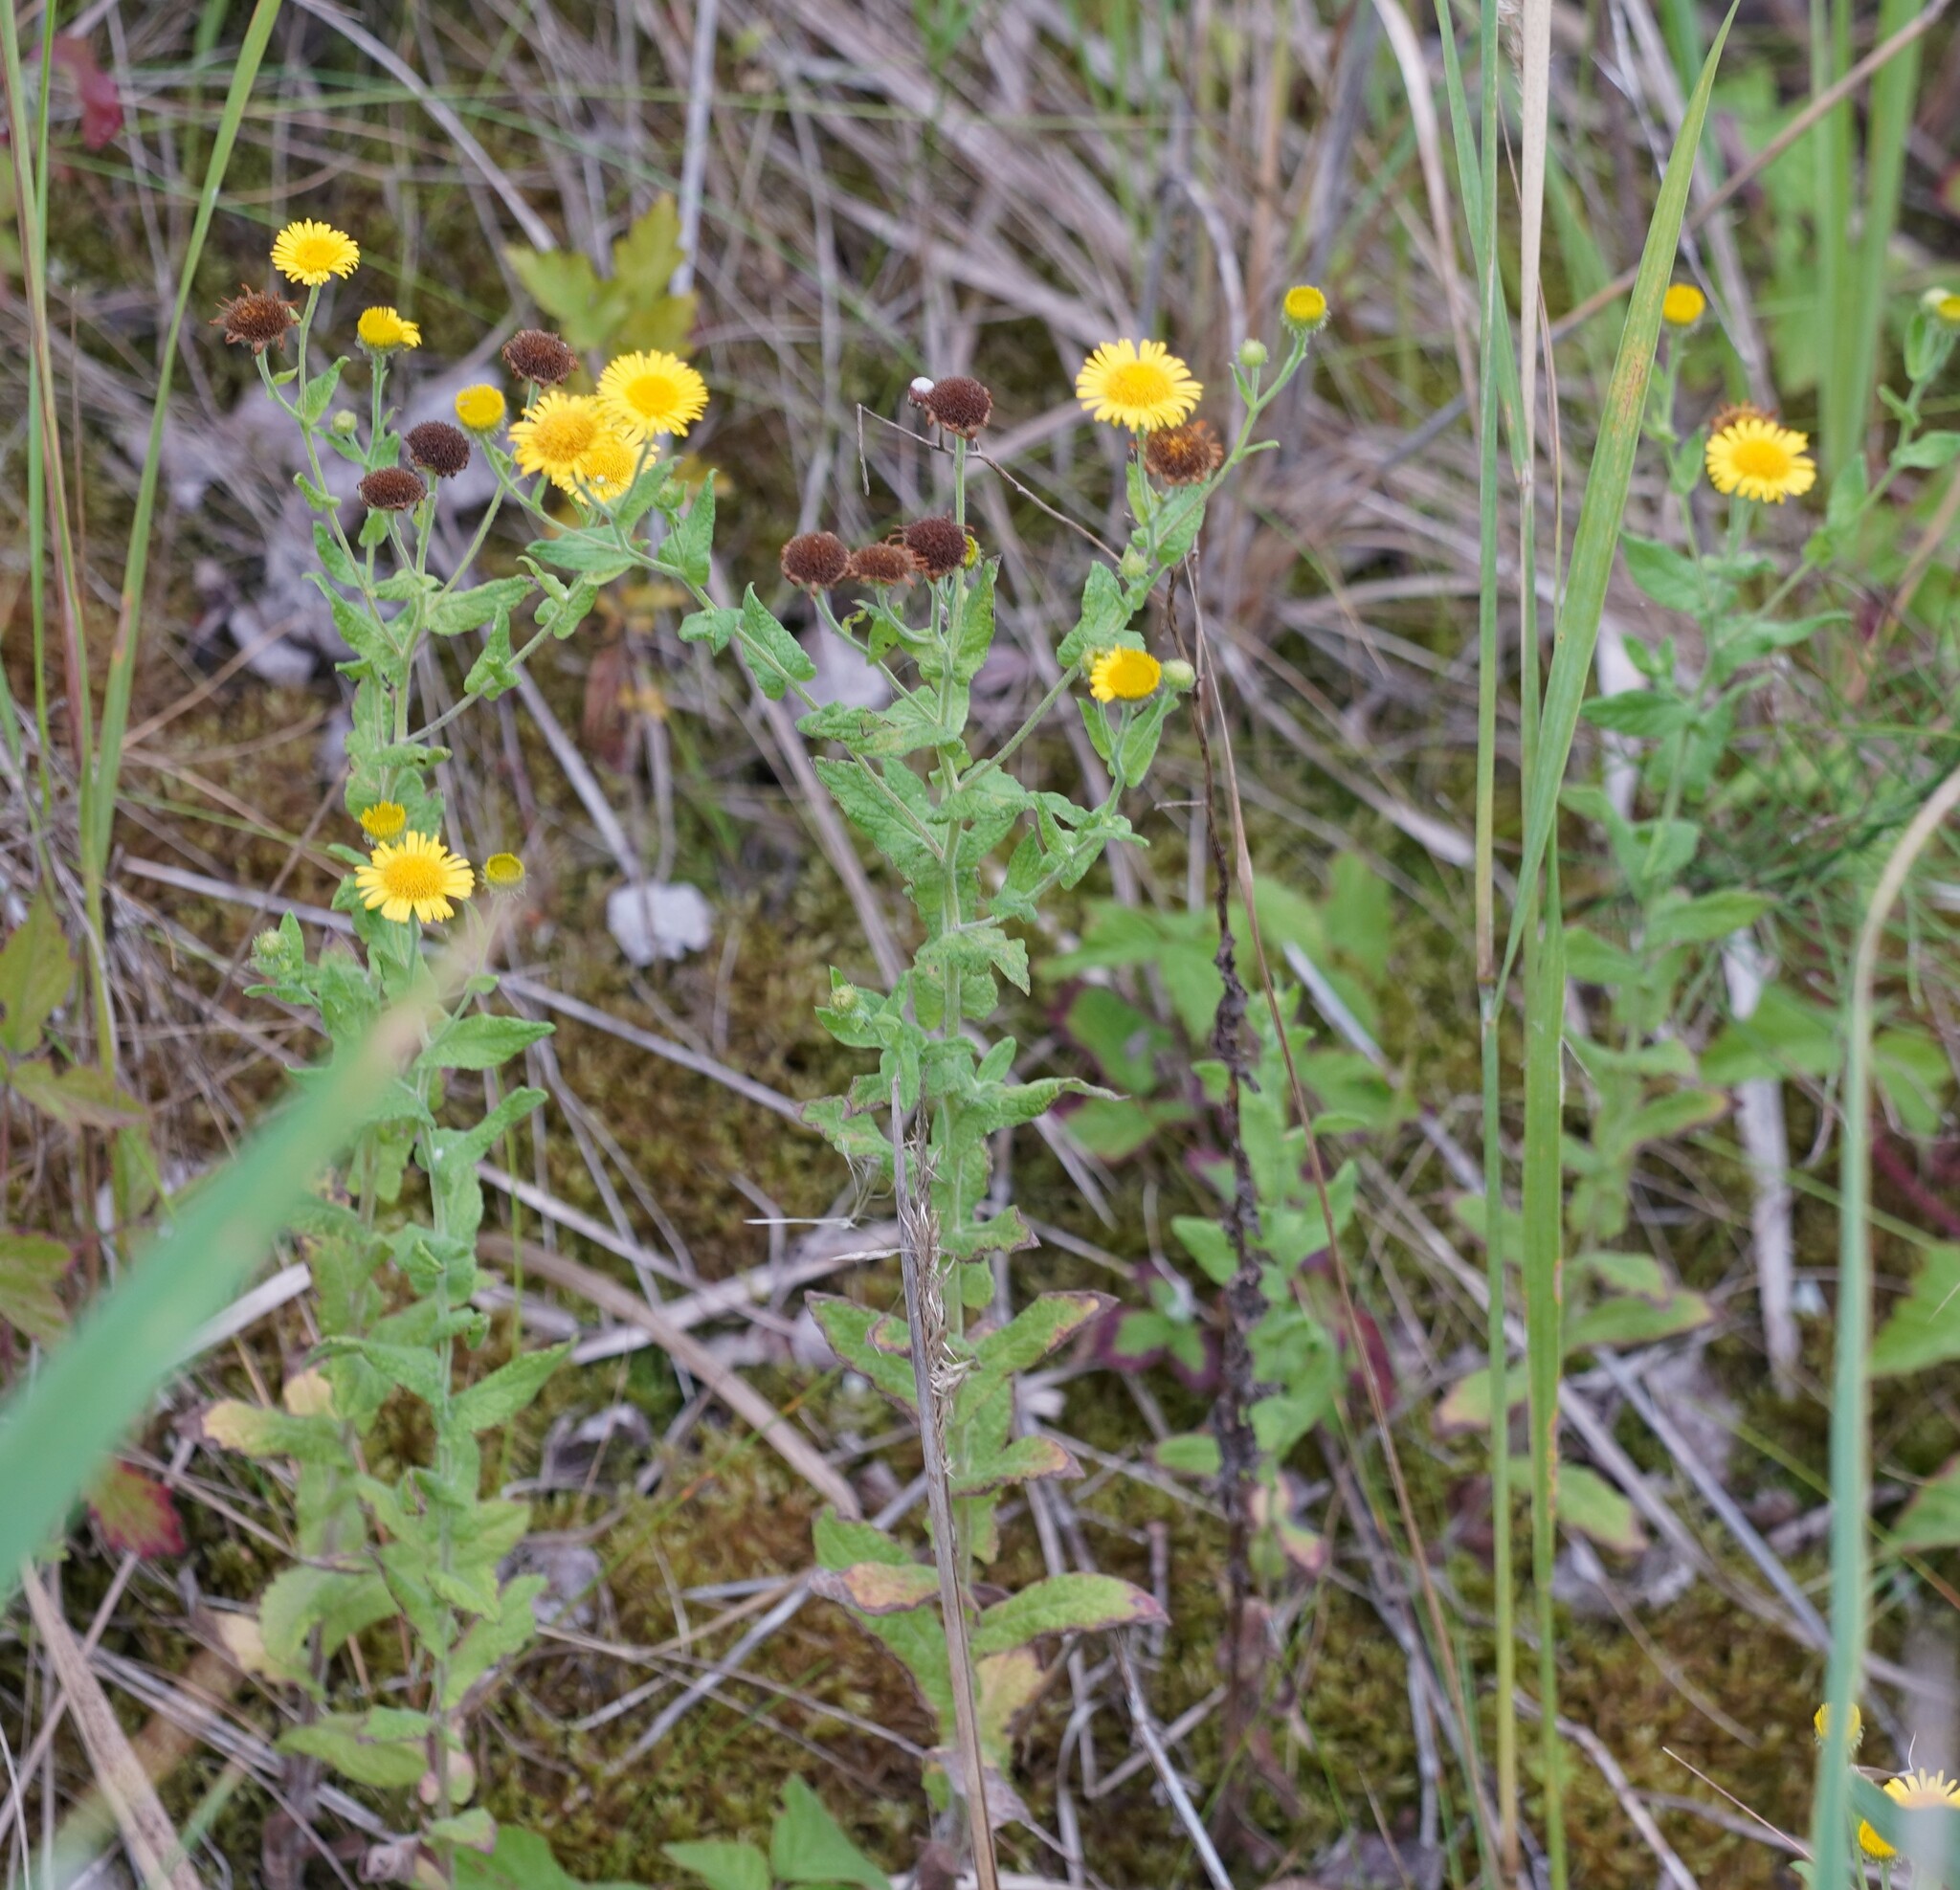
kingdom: Plantae
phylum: Tracheophyta
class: Magnoliopsida
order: Asterales
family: Asteraceae
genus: Pulicaria
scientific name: Pulicaria dysenterica
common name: Common fleabane
